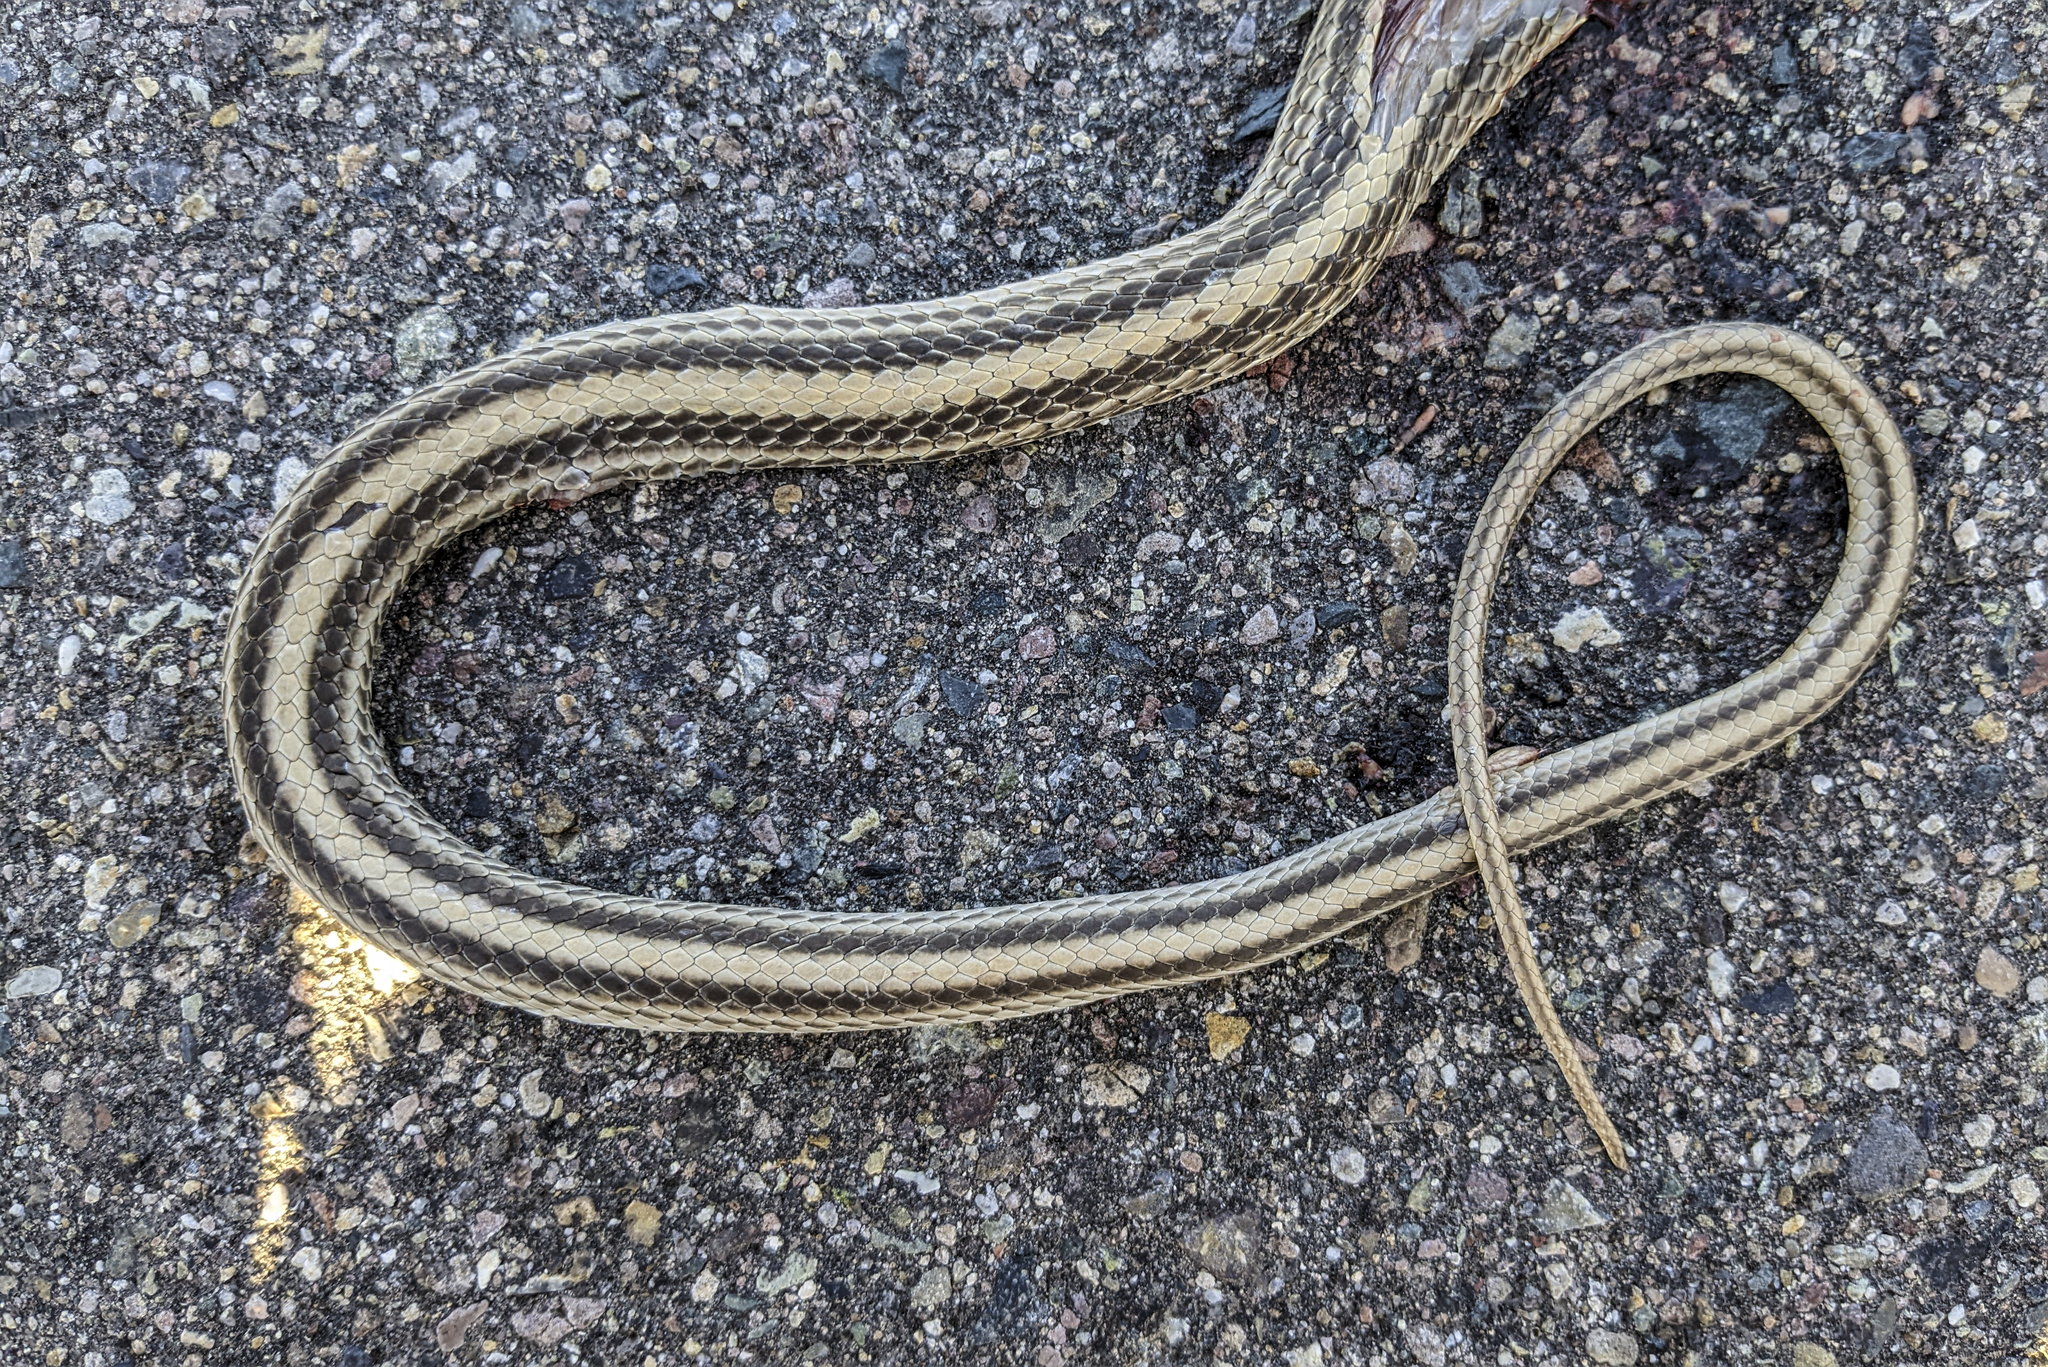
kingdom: Animalia
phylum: Chordata
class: Squamata
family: Colubridae
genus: Salvadora
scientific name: Salvadora hexalepis
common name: Western patchnose snake
